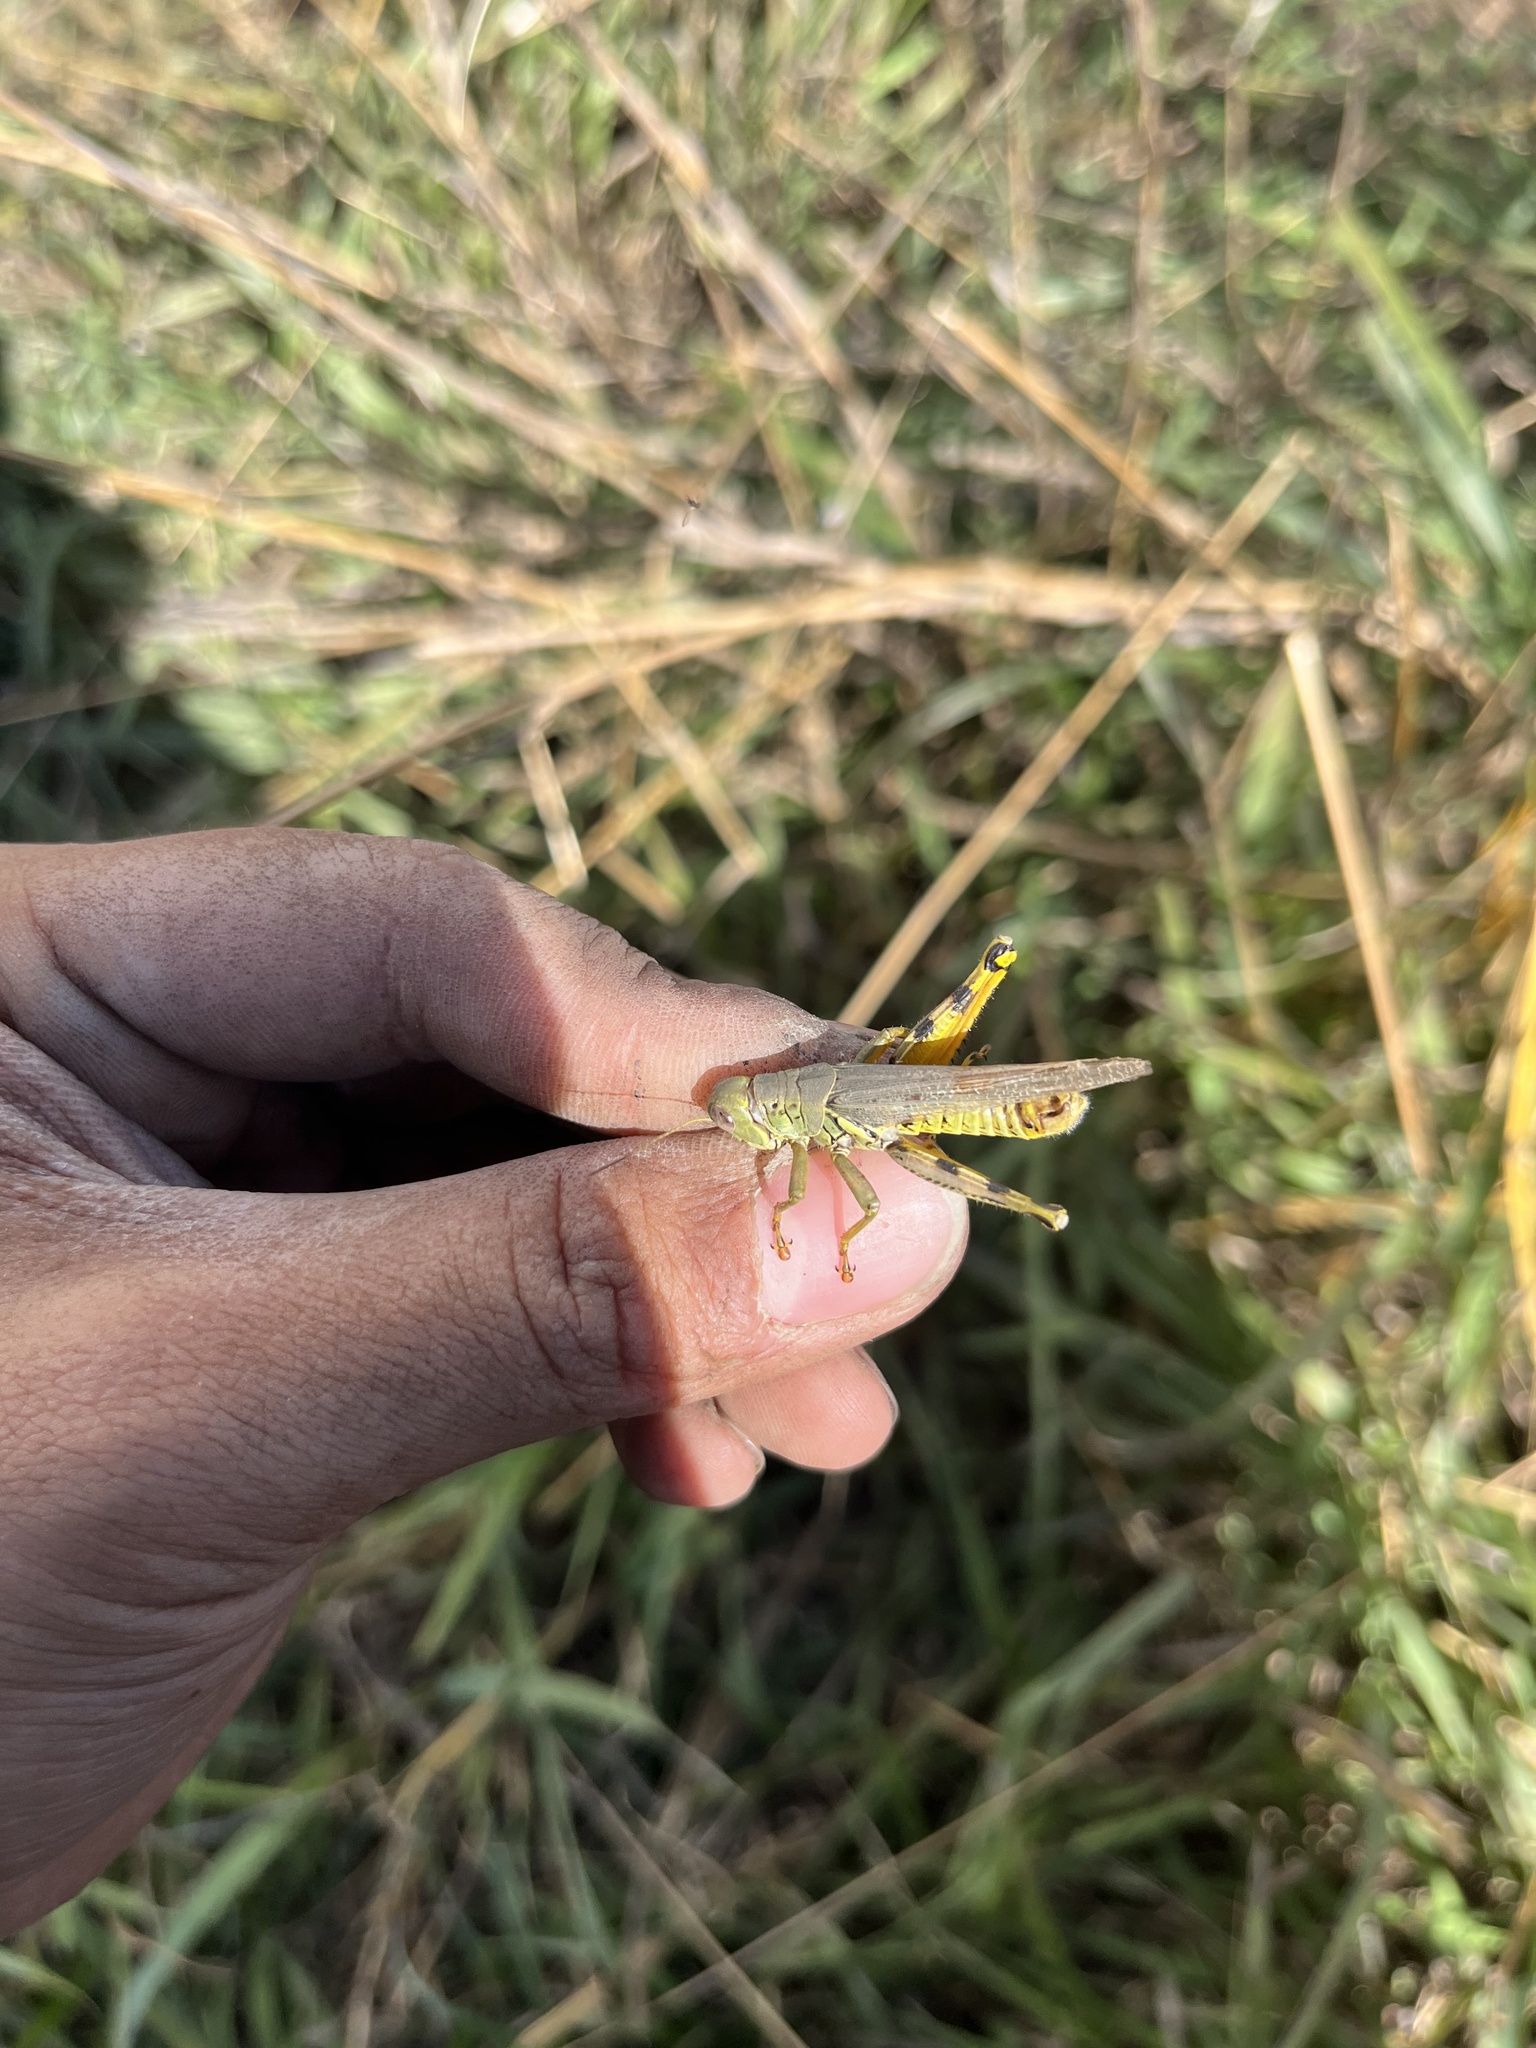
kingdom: Animalia
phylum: Arthropoda
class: Insecta
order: Orthoptera
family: Acrididae
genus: Melanoplus
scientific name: Melanoplus differentialis
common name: Differential grasshopper
